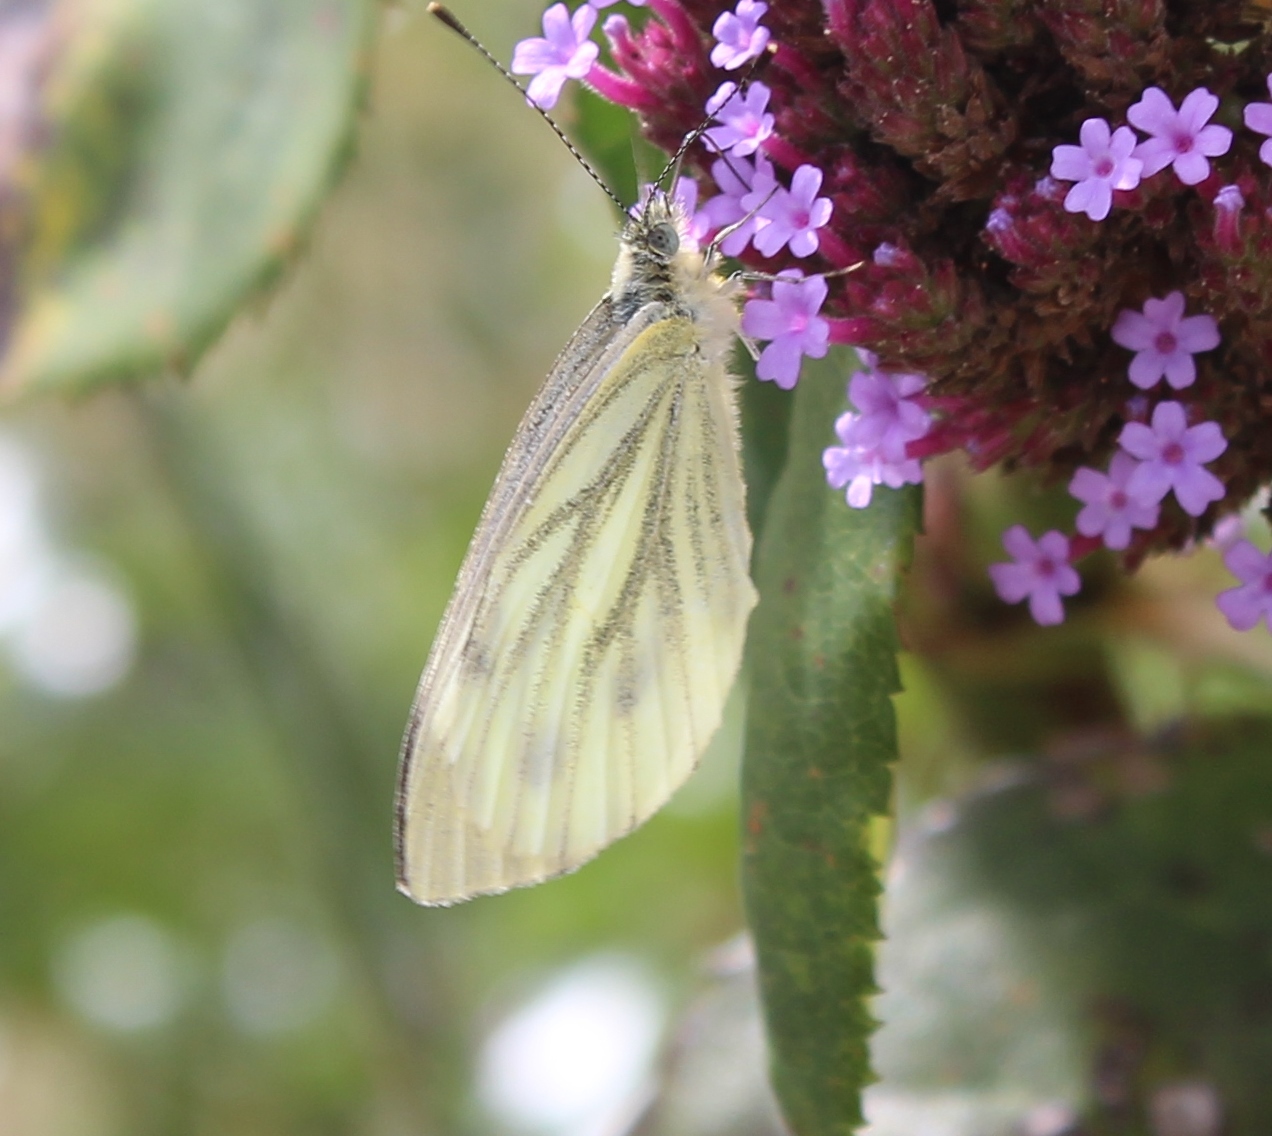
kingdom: Animalia
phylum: Arthropoda
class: Insecta
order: Lepidoptera
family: Pieridae
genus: Pieris
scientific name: Pieris napi
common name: Green-veined white
